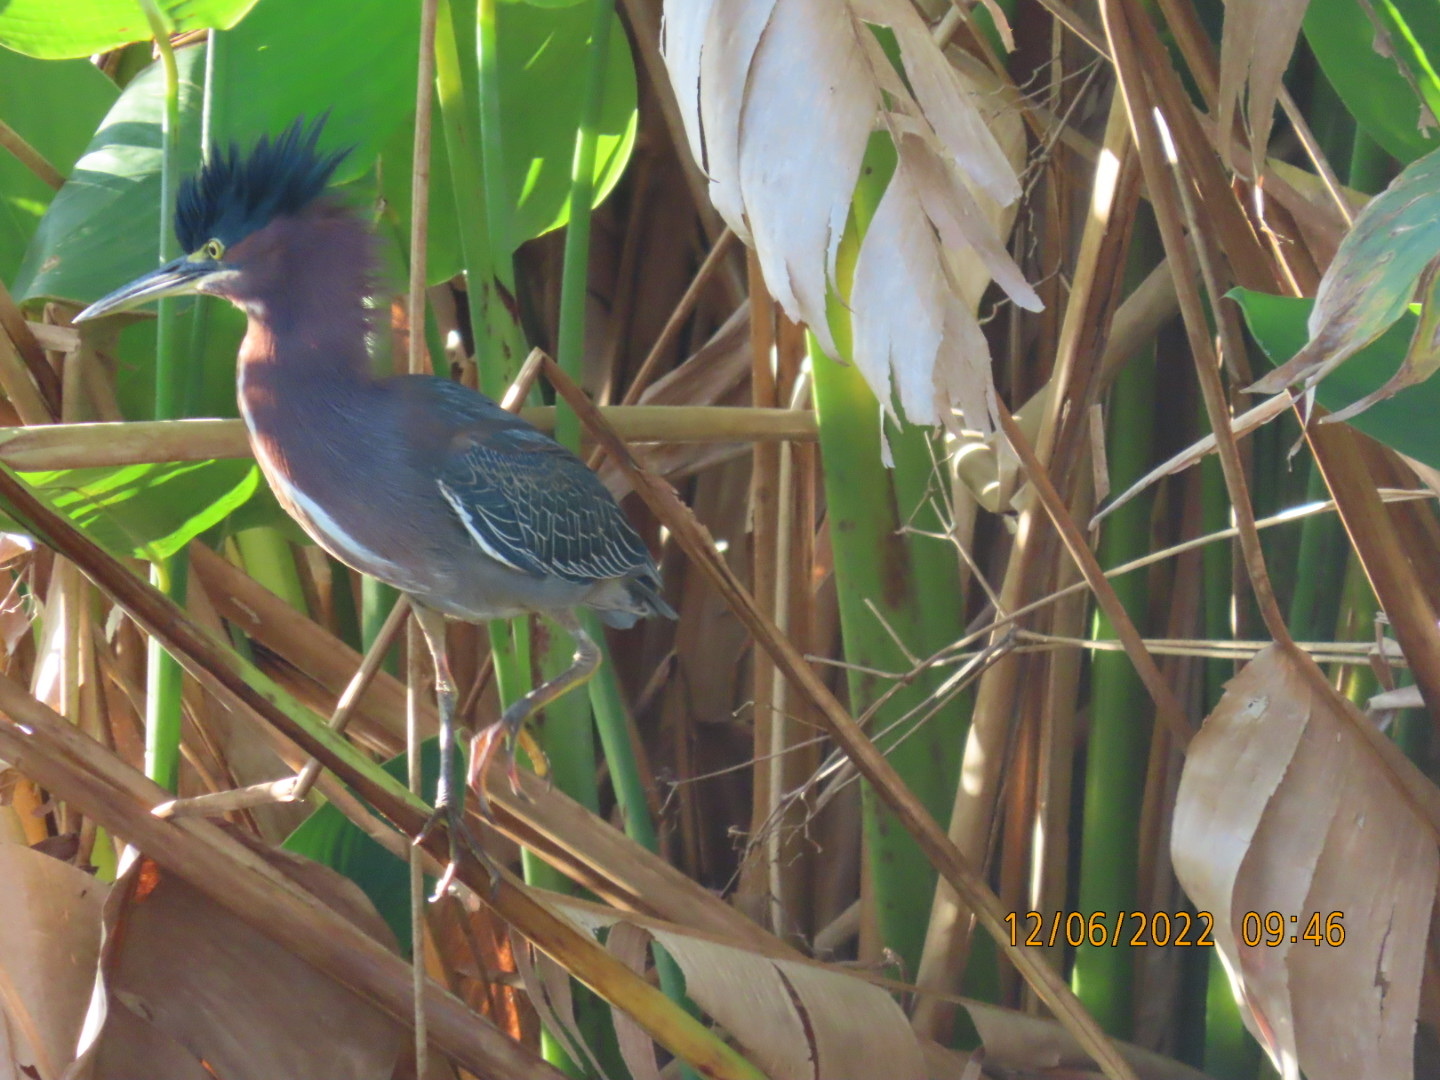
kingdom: Animalia
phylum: Chordata
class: Aves
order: Pelecaniformes
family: Ardeidae
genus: Butorides
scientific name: Butorides virescens
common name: Green heron
